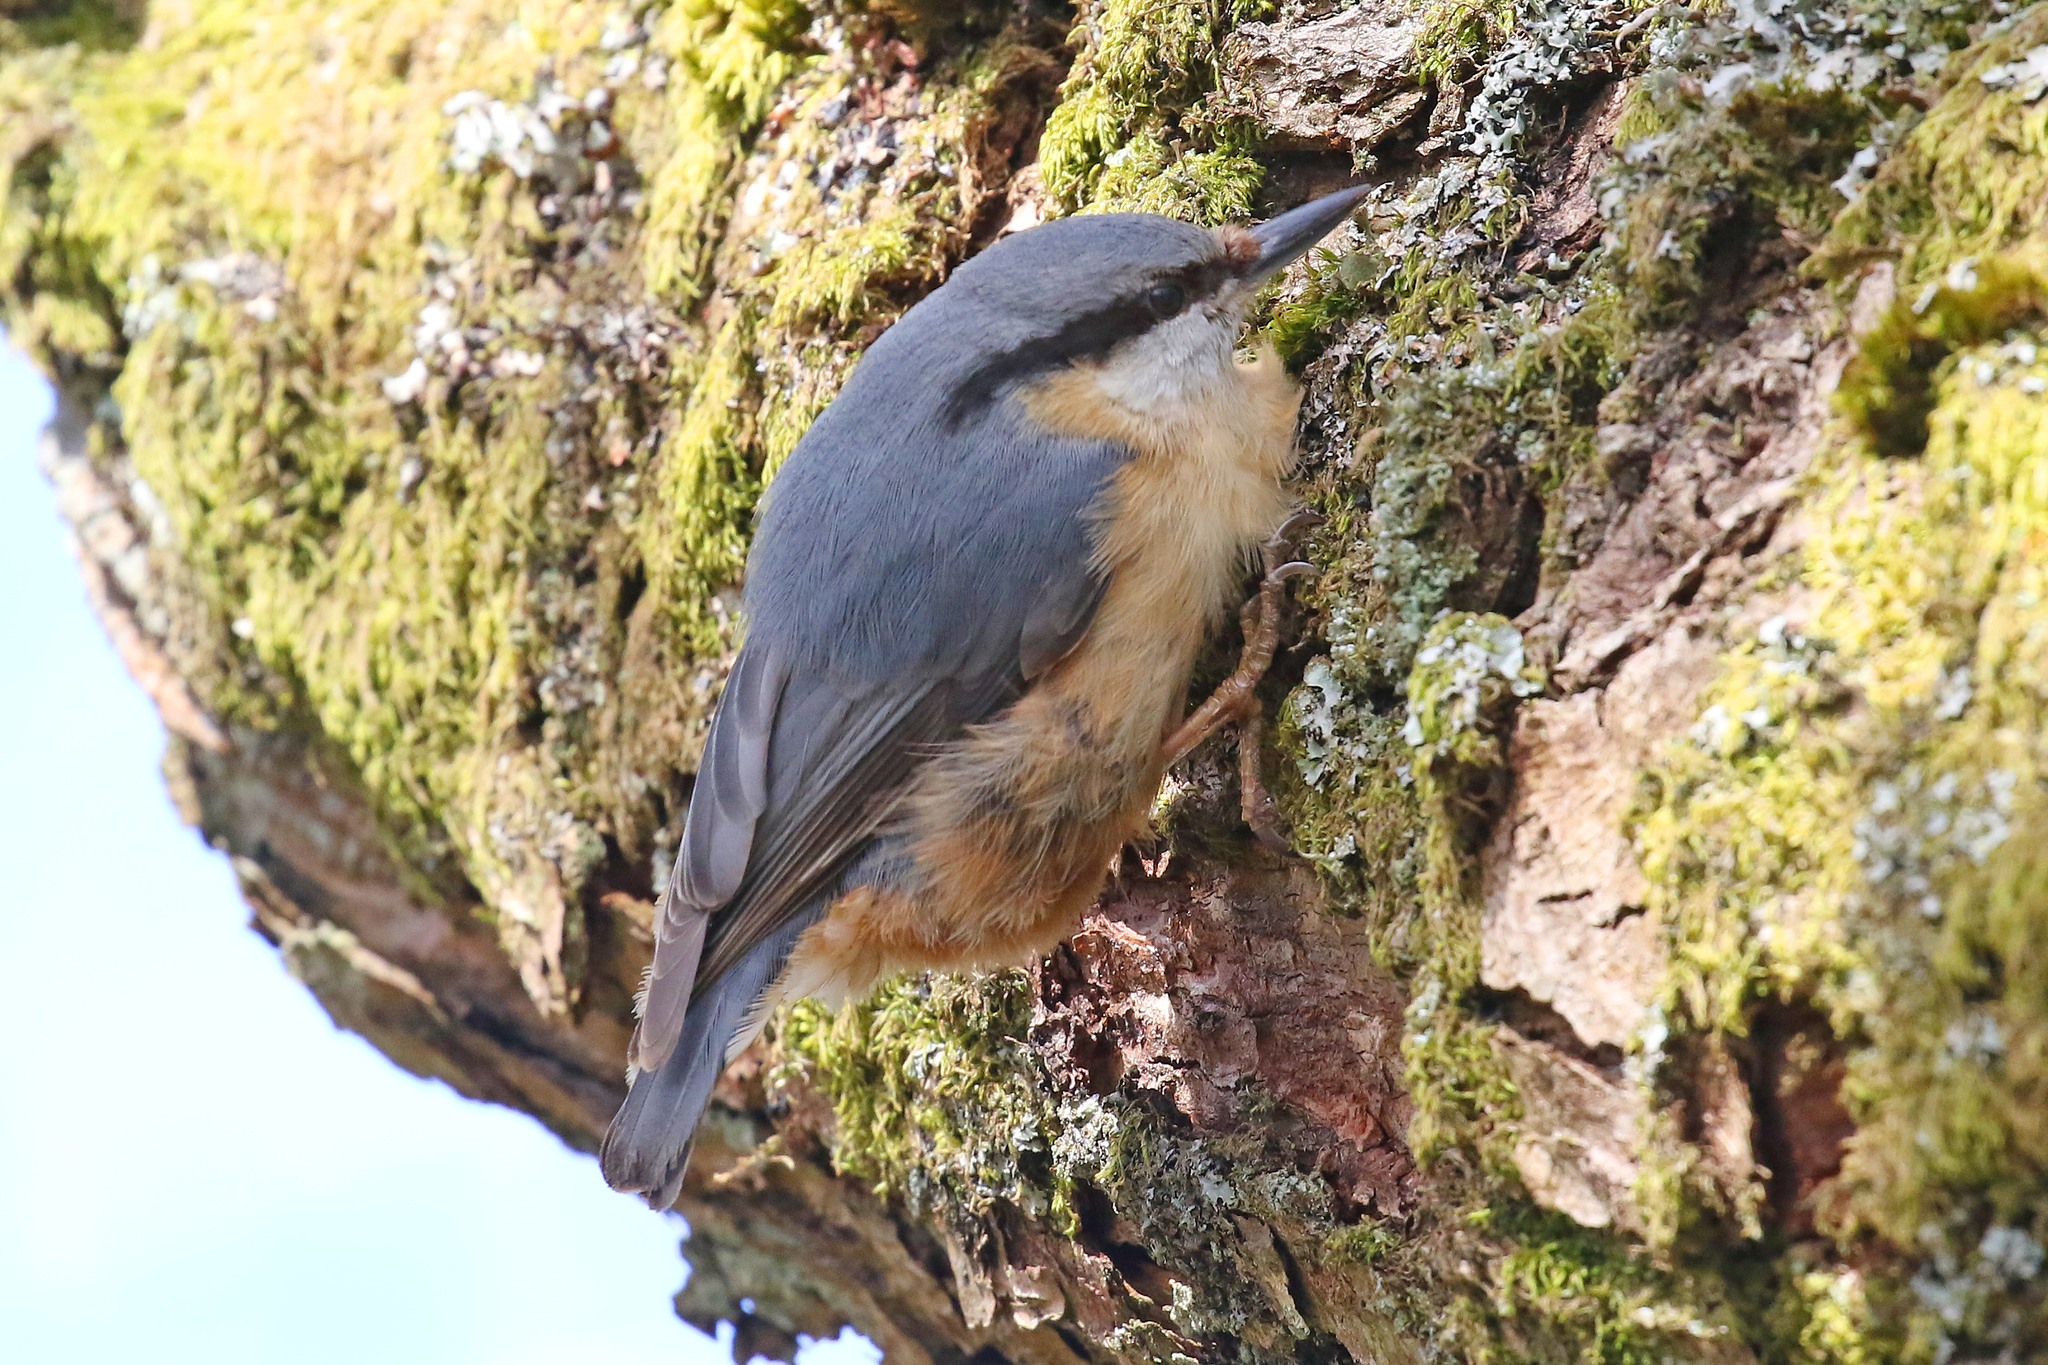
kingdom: Animalia
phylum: Chordata
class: Aves
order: Passeriformes
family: Sittidae
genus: Sitta
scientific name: Sitta europaea
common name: Eurasian nuthatch
